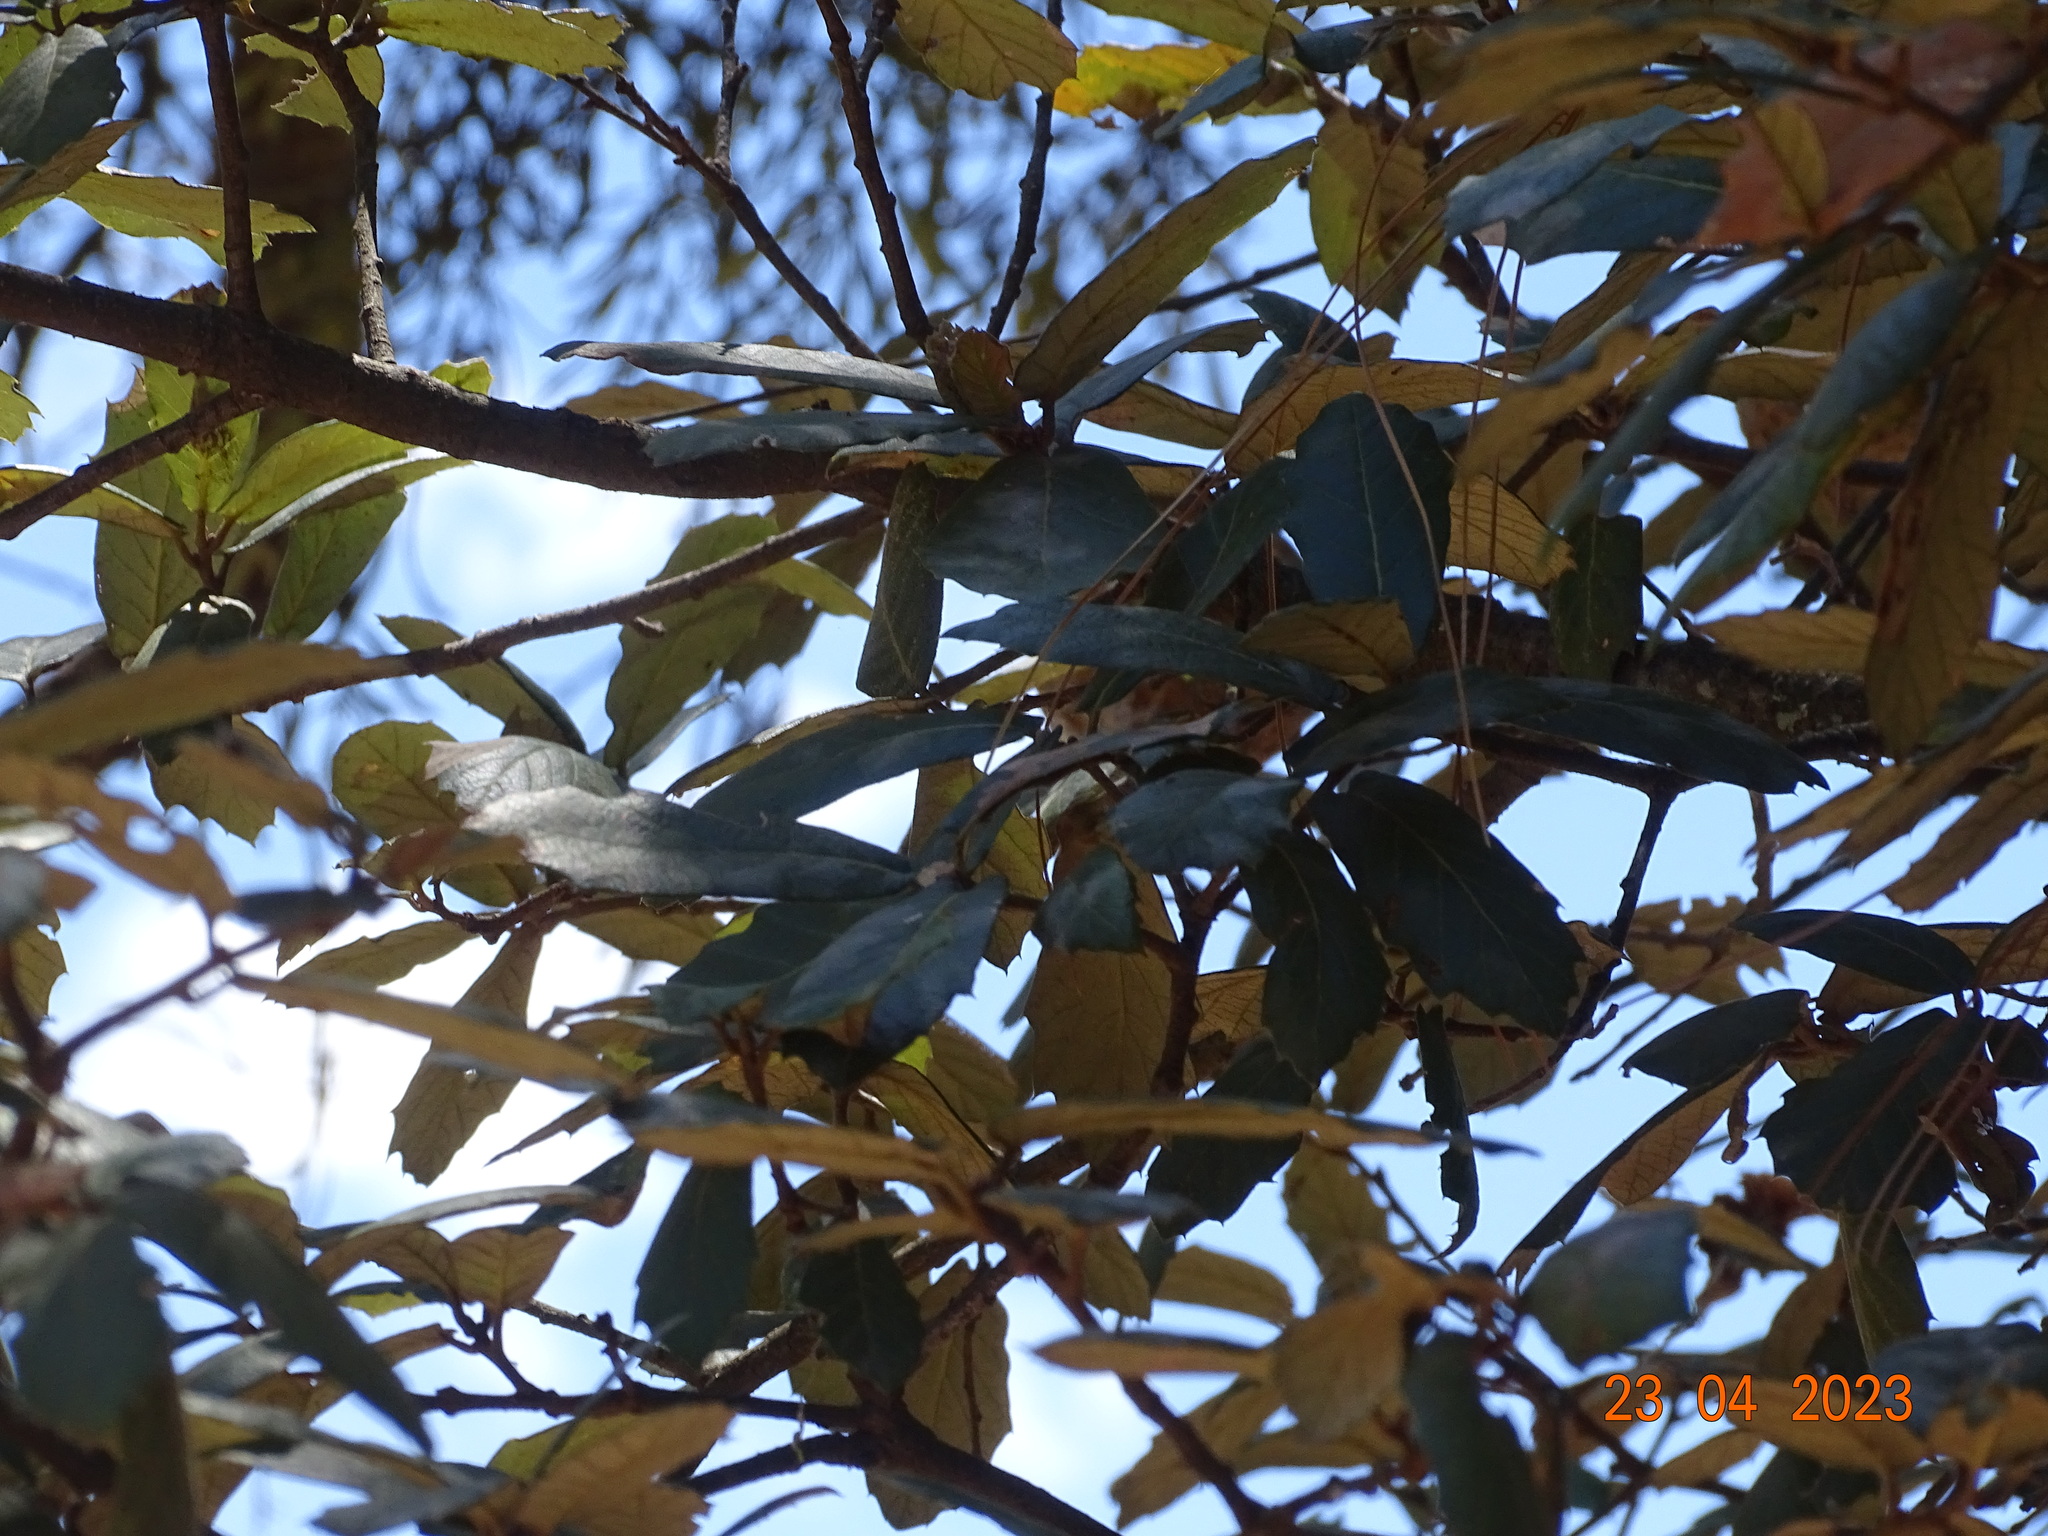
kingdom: Plantae
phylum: Tracheophyta
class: Magnoliopsida
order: Fagales
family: Fagaceae
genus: Quercus
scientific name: Quercus sideroxyla
